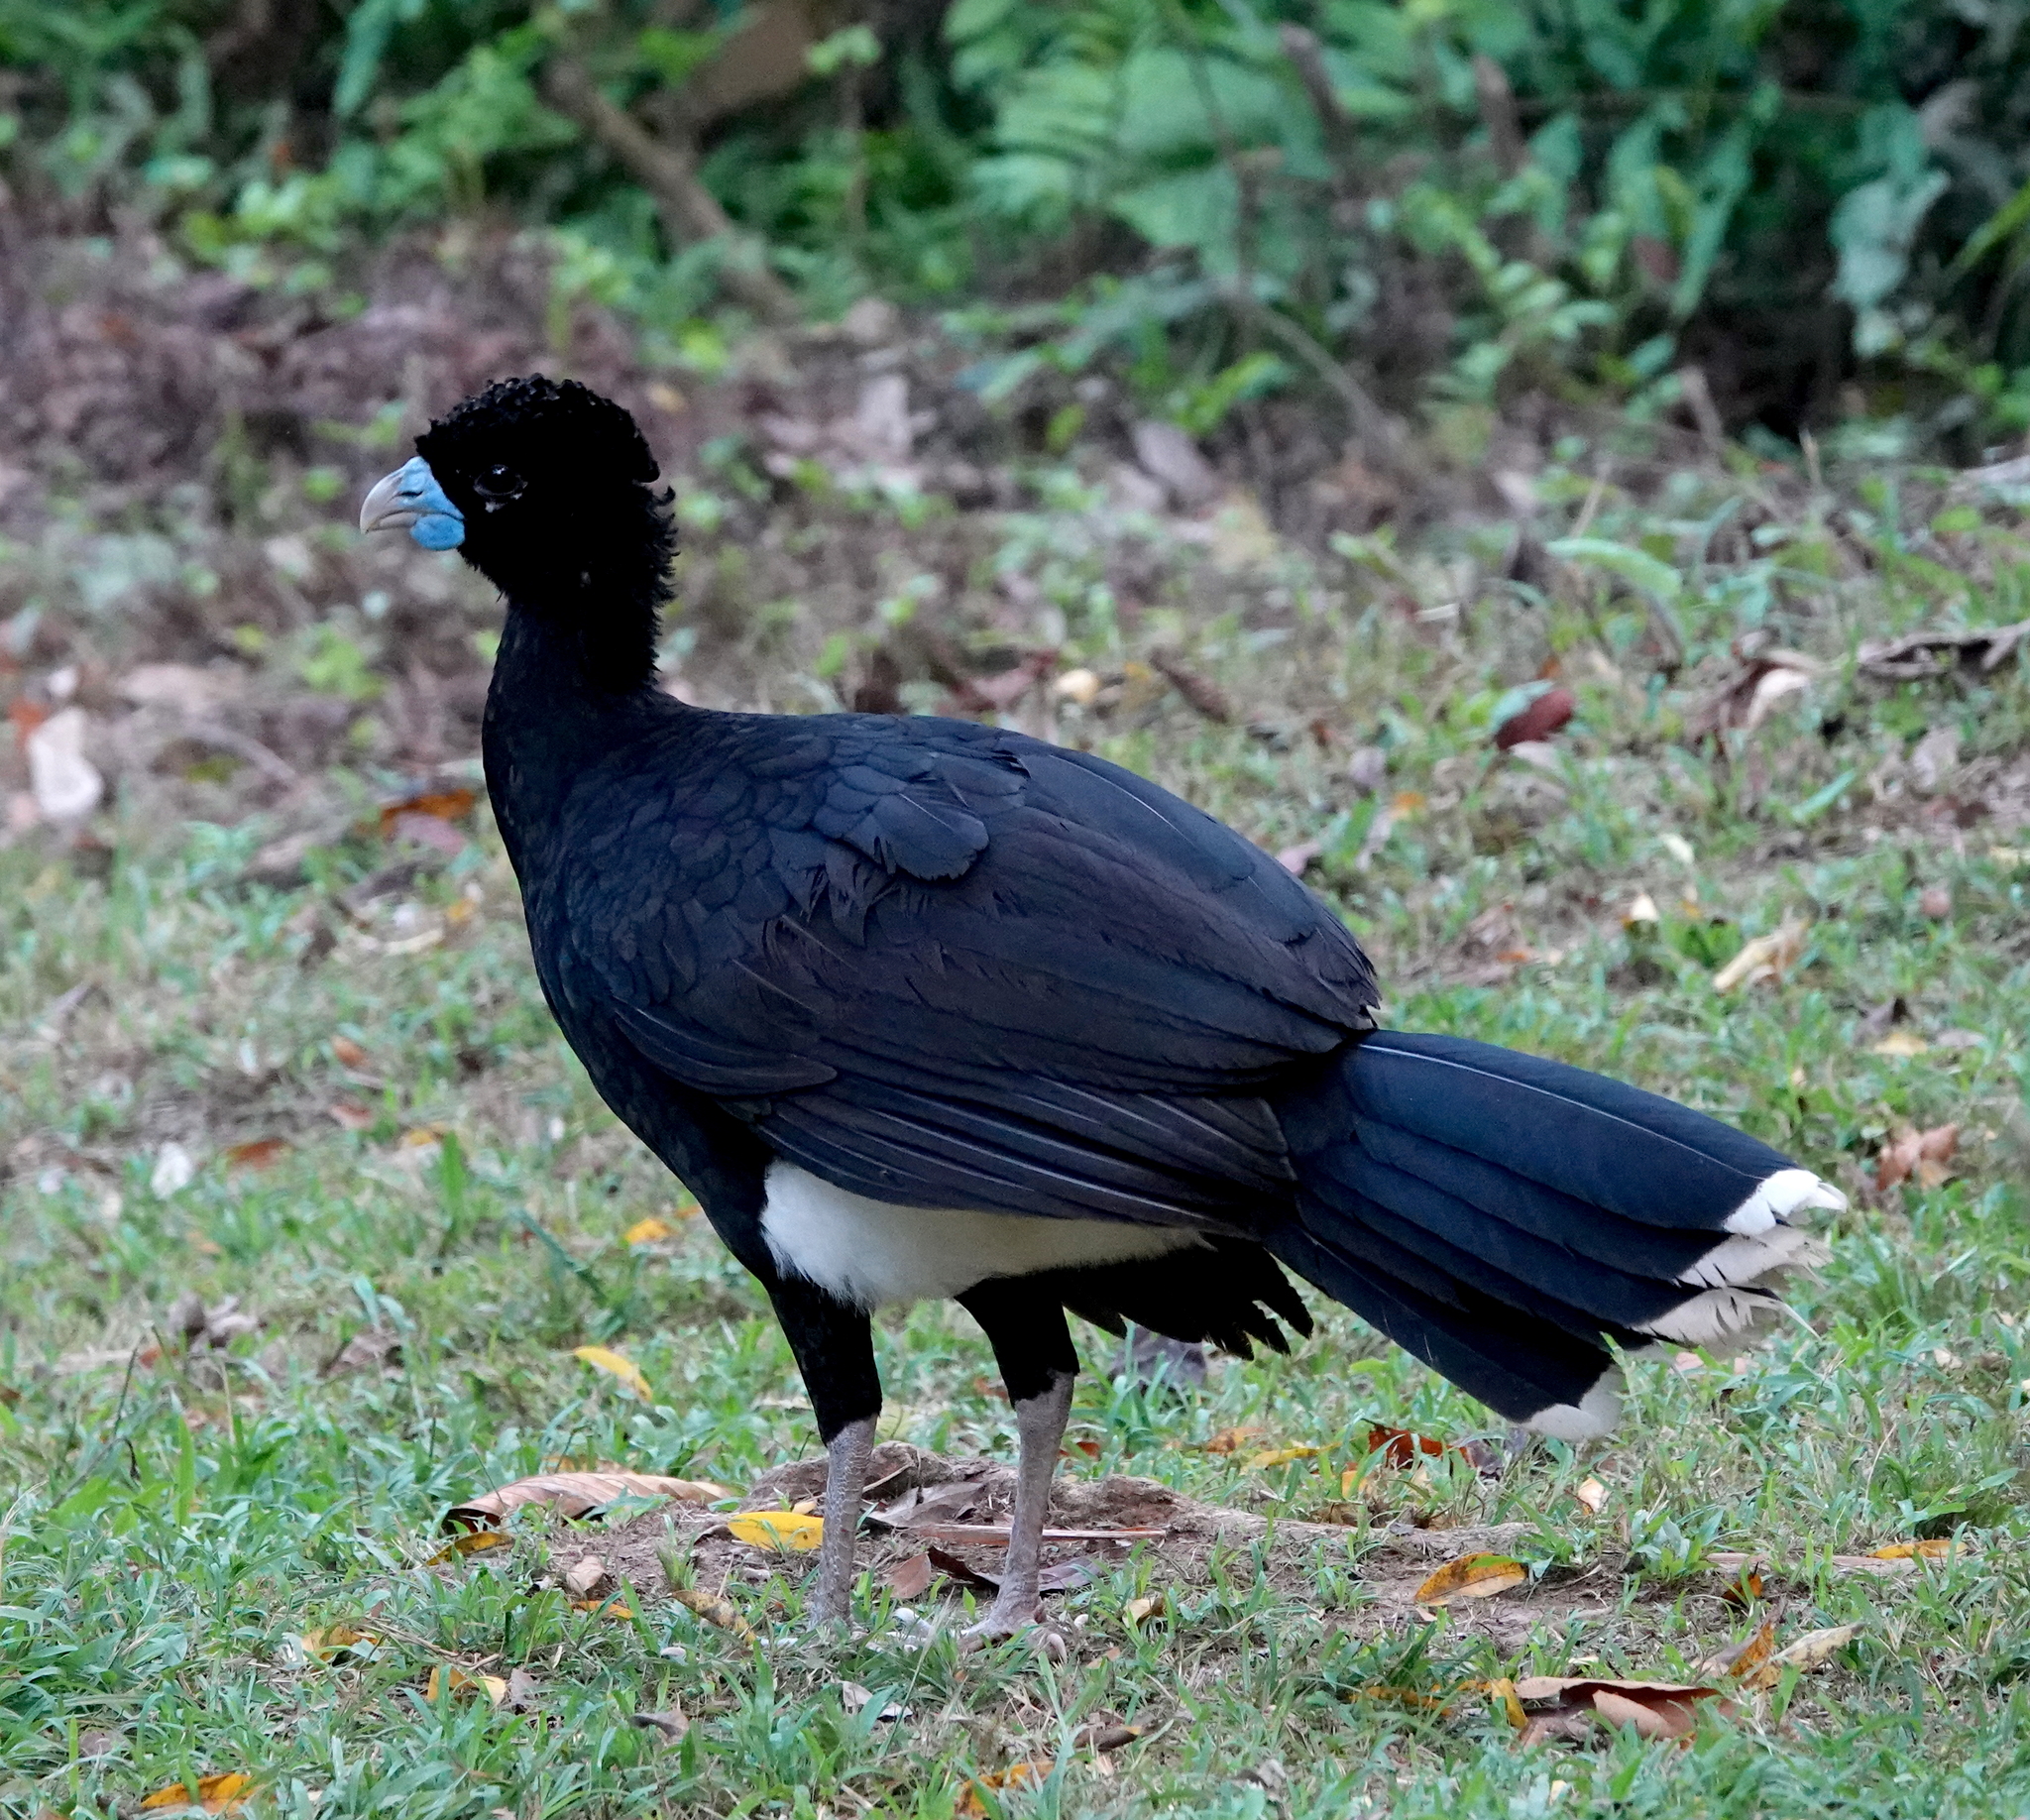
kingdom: Animalia
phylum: Chordata
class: Aves
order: Galliformes
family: Cracidae
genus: Crax
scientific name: Crax alberti
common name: Blue-billed curassow
